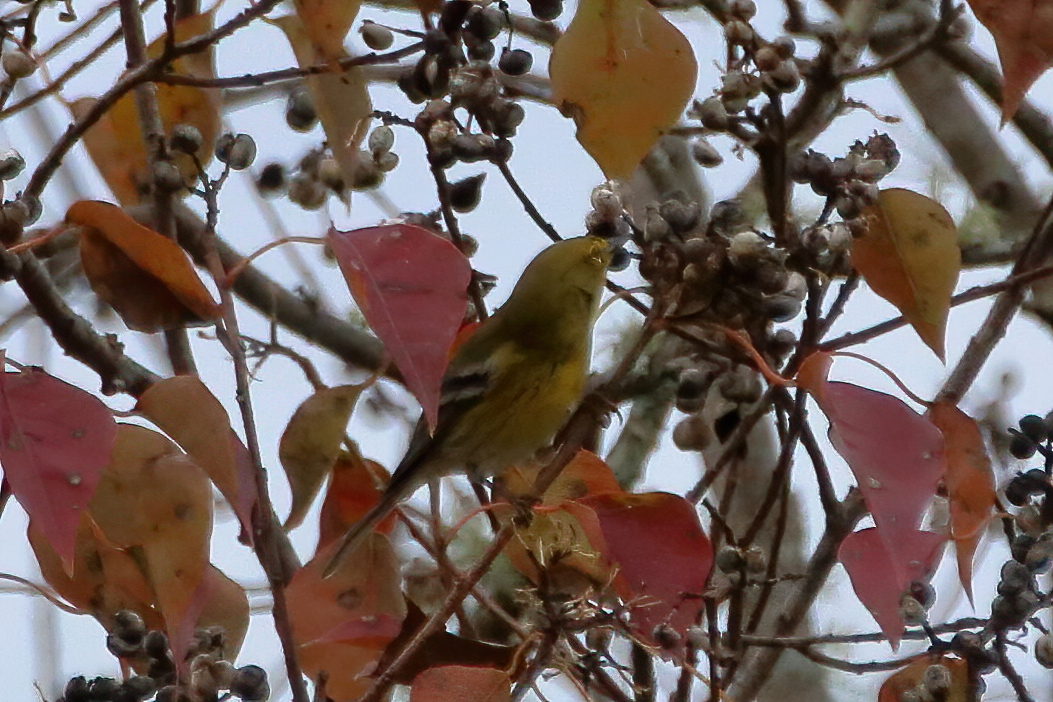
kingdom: Animalia
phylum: Chordata
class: Aves
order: Passeriformes
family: Parulidae
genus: Setophaga
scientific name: Setophaga pinus
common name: Pine warbler
